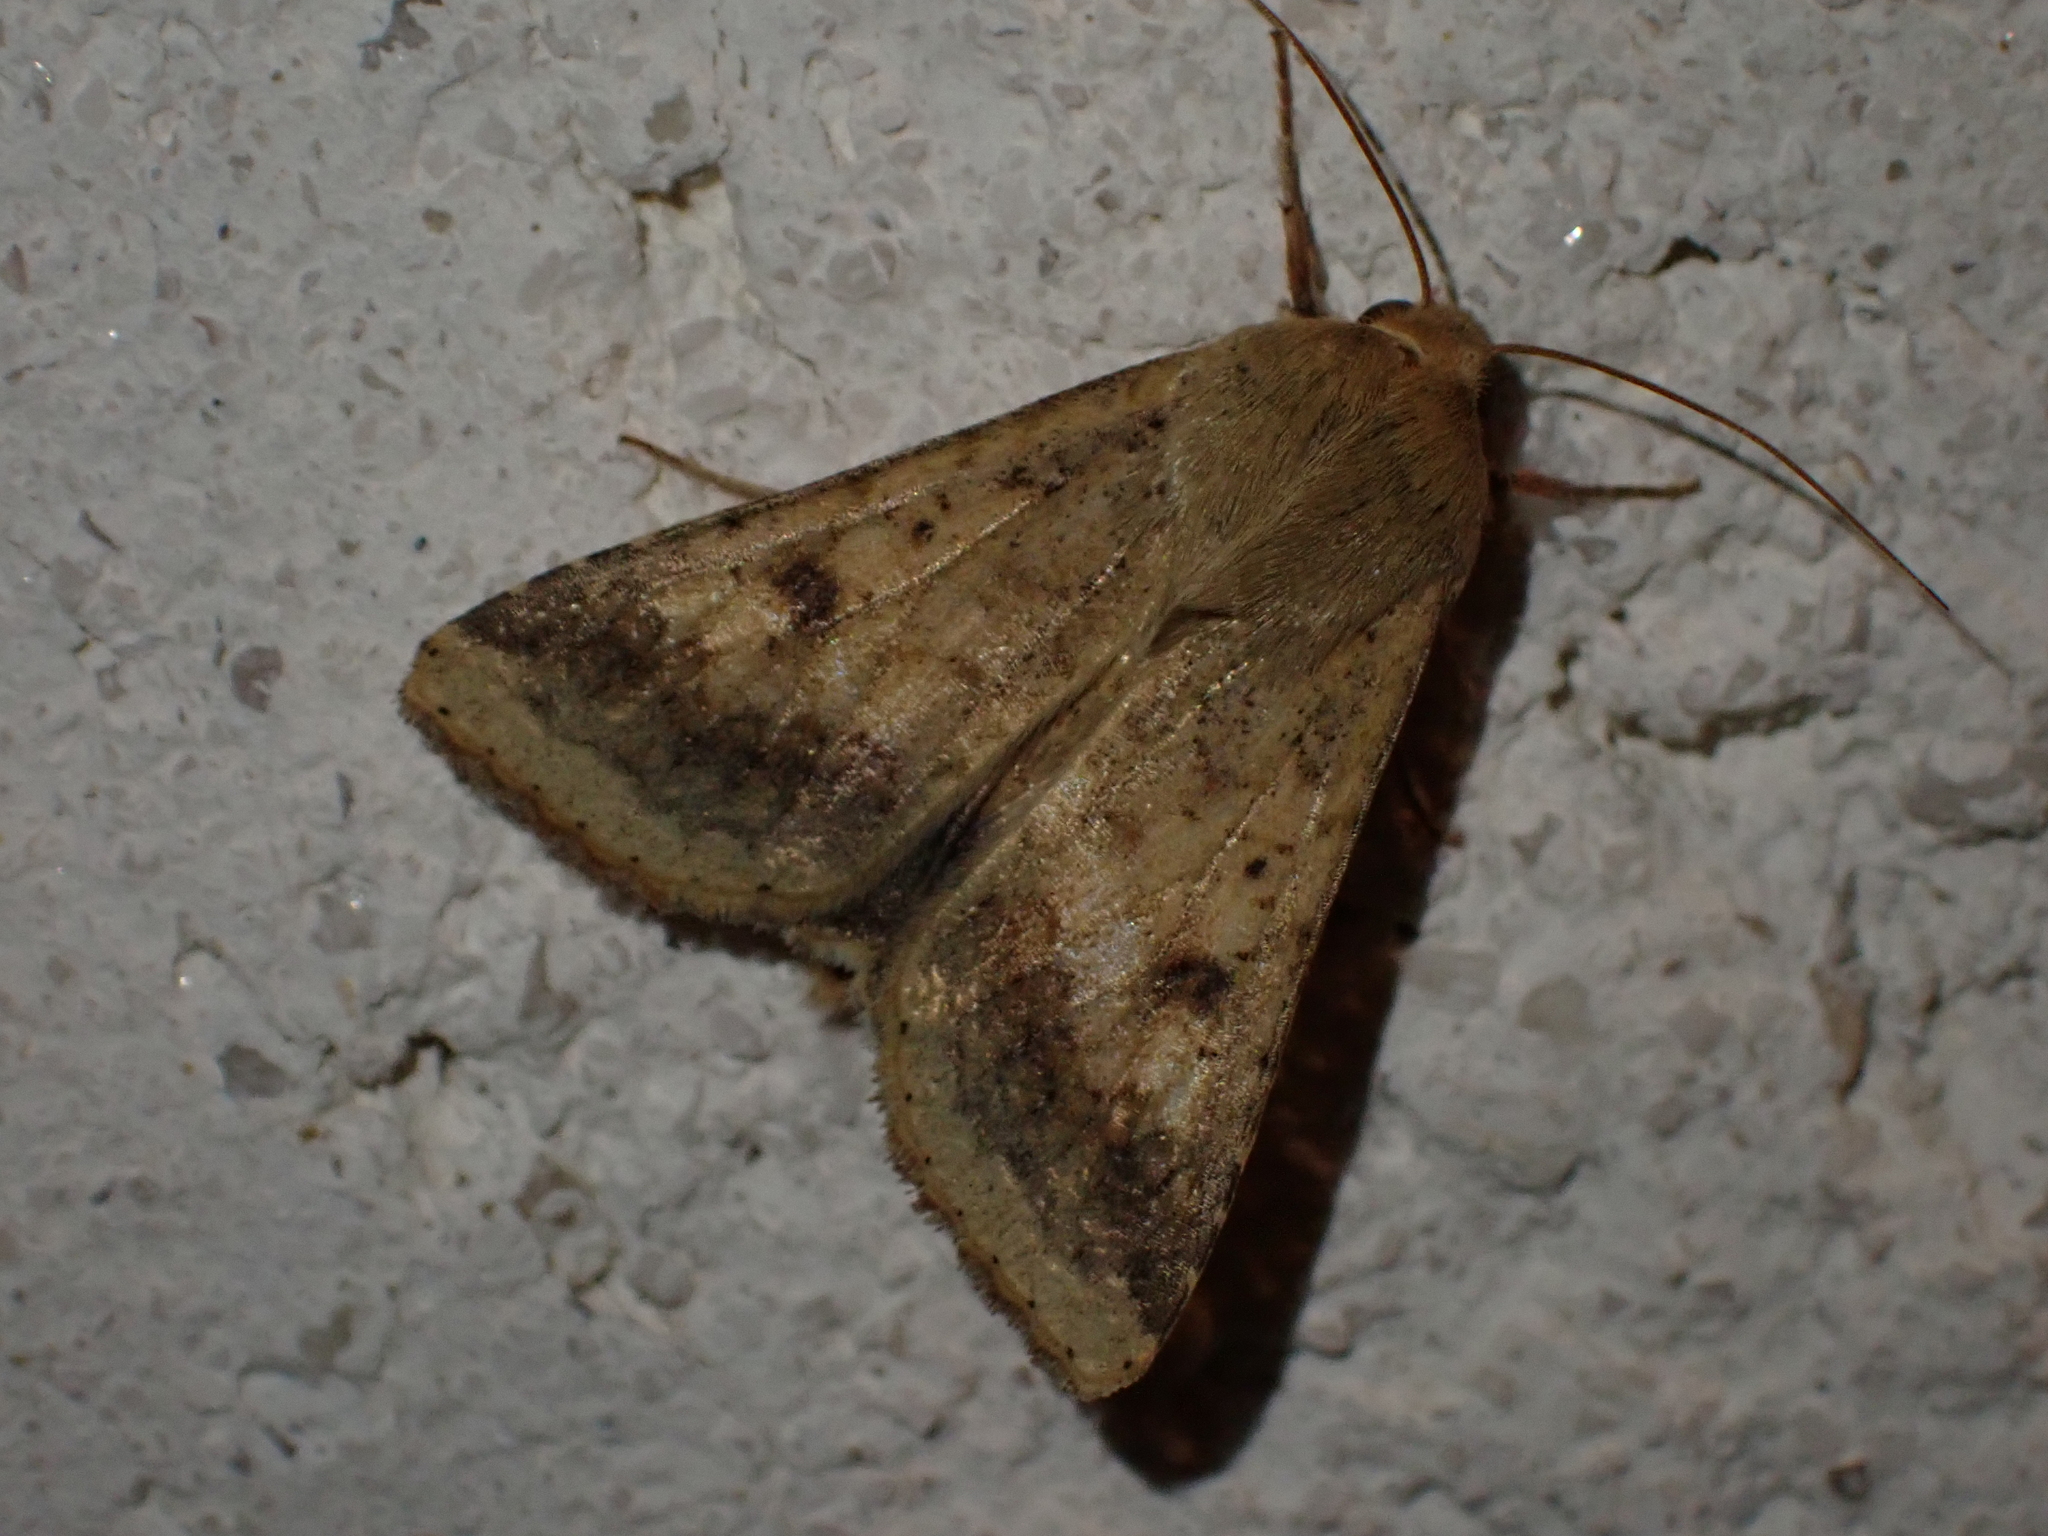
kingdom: Animalia
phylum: Arthropoda
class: Insecta
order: Lepidoptera
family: Noctuidae
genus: Helicoverpa
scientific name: Helicoverpa armigera
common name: Cotton bollworm
